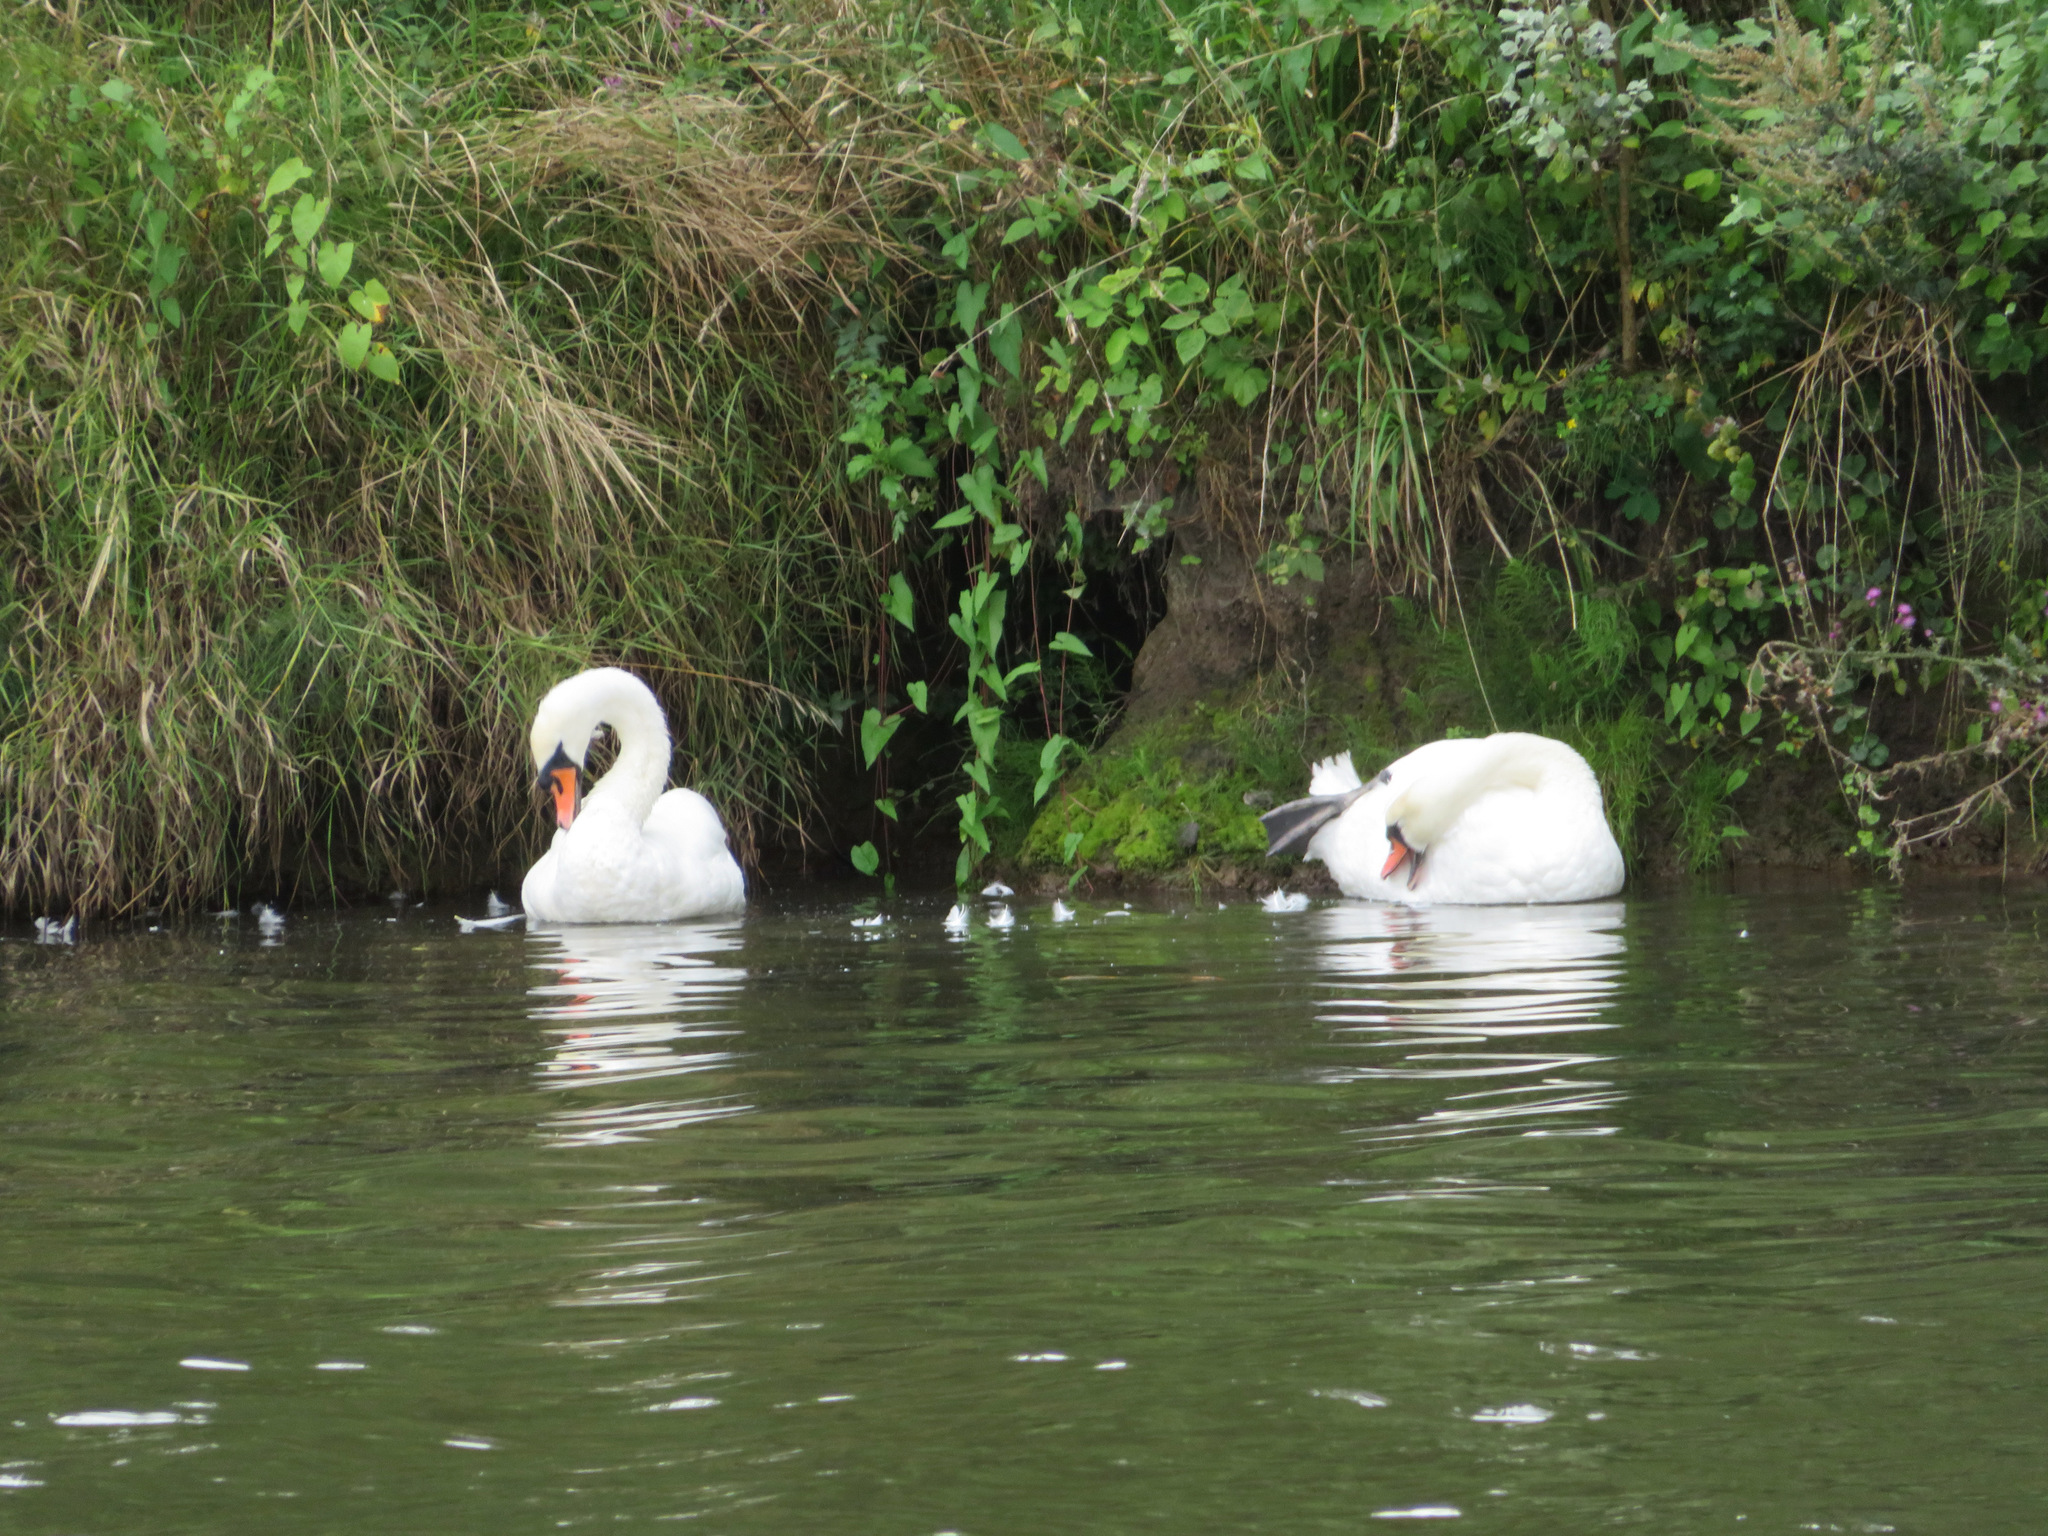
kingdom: Animalia
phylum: Chordata
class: Aves
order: Anseriformes
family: Anatidae
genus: Cygnus
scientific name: Cygnus olor
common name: Mute swan
